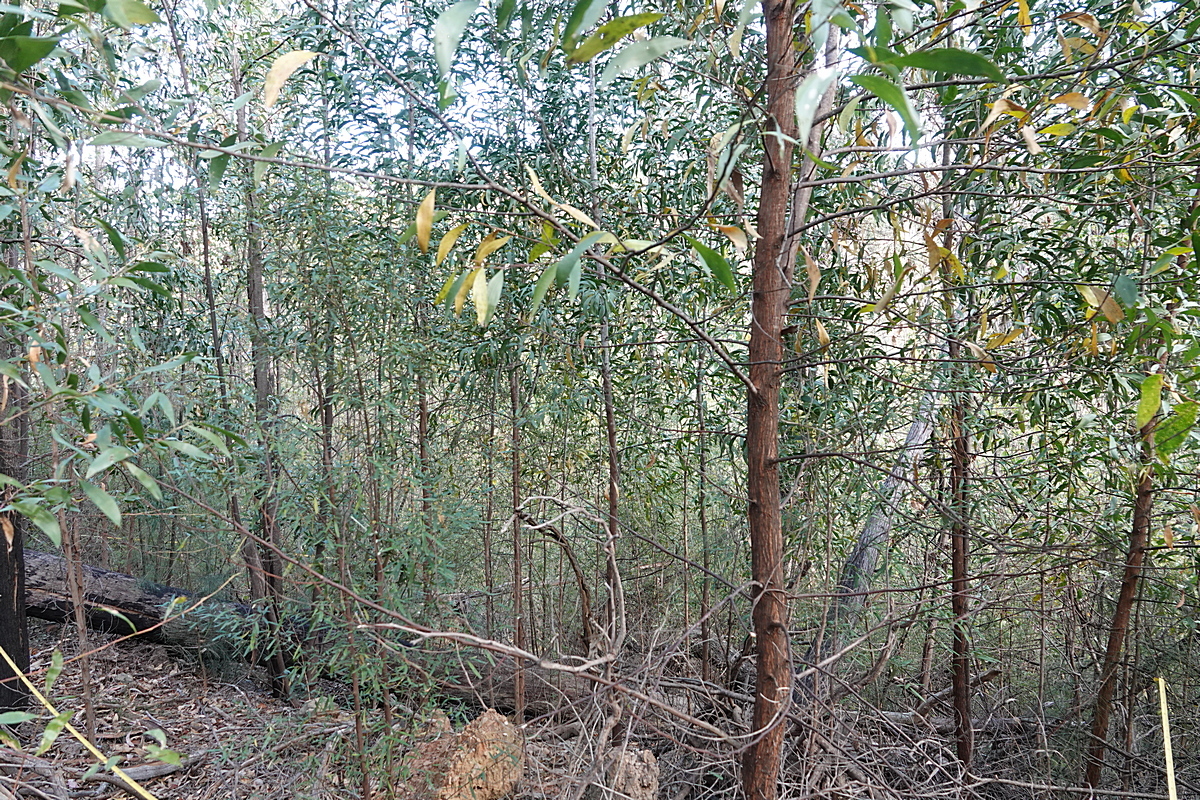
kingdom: Plantae
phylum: Tracheophyta
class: Magnoliopsida
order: Fabales
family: Fabaceae
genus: Acacia
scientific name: Acacia georgensis
